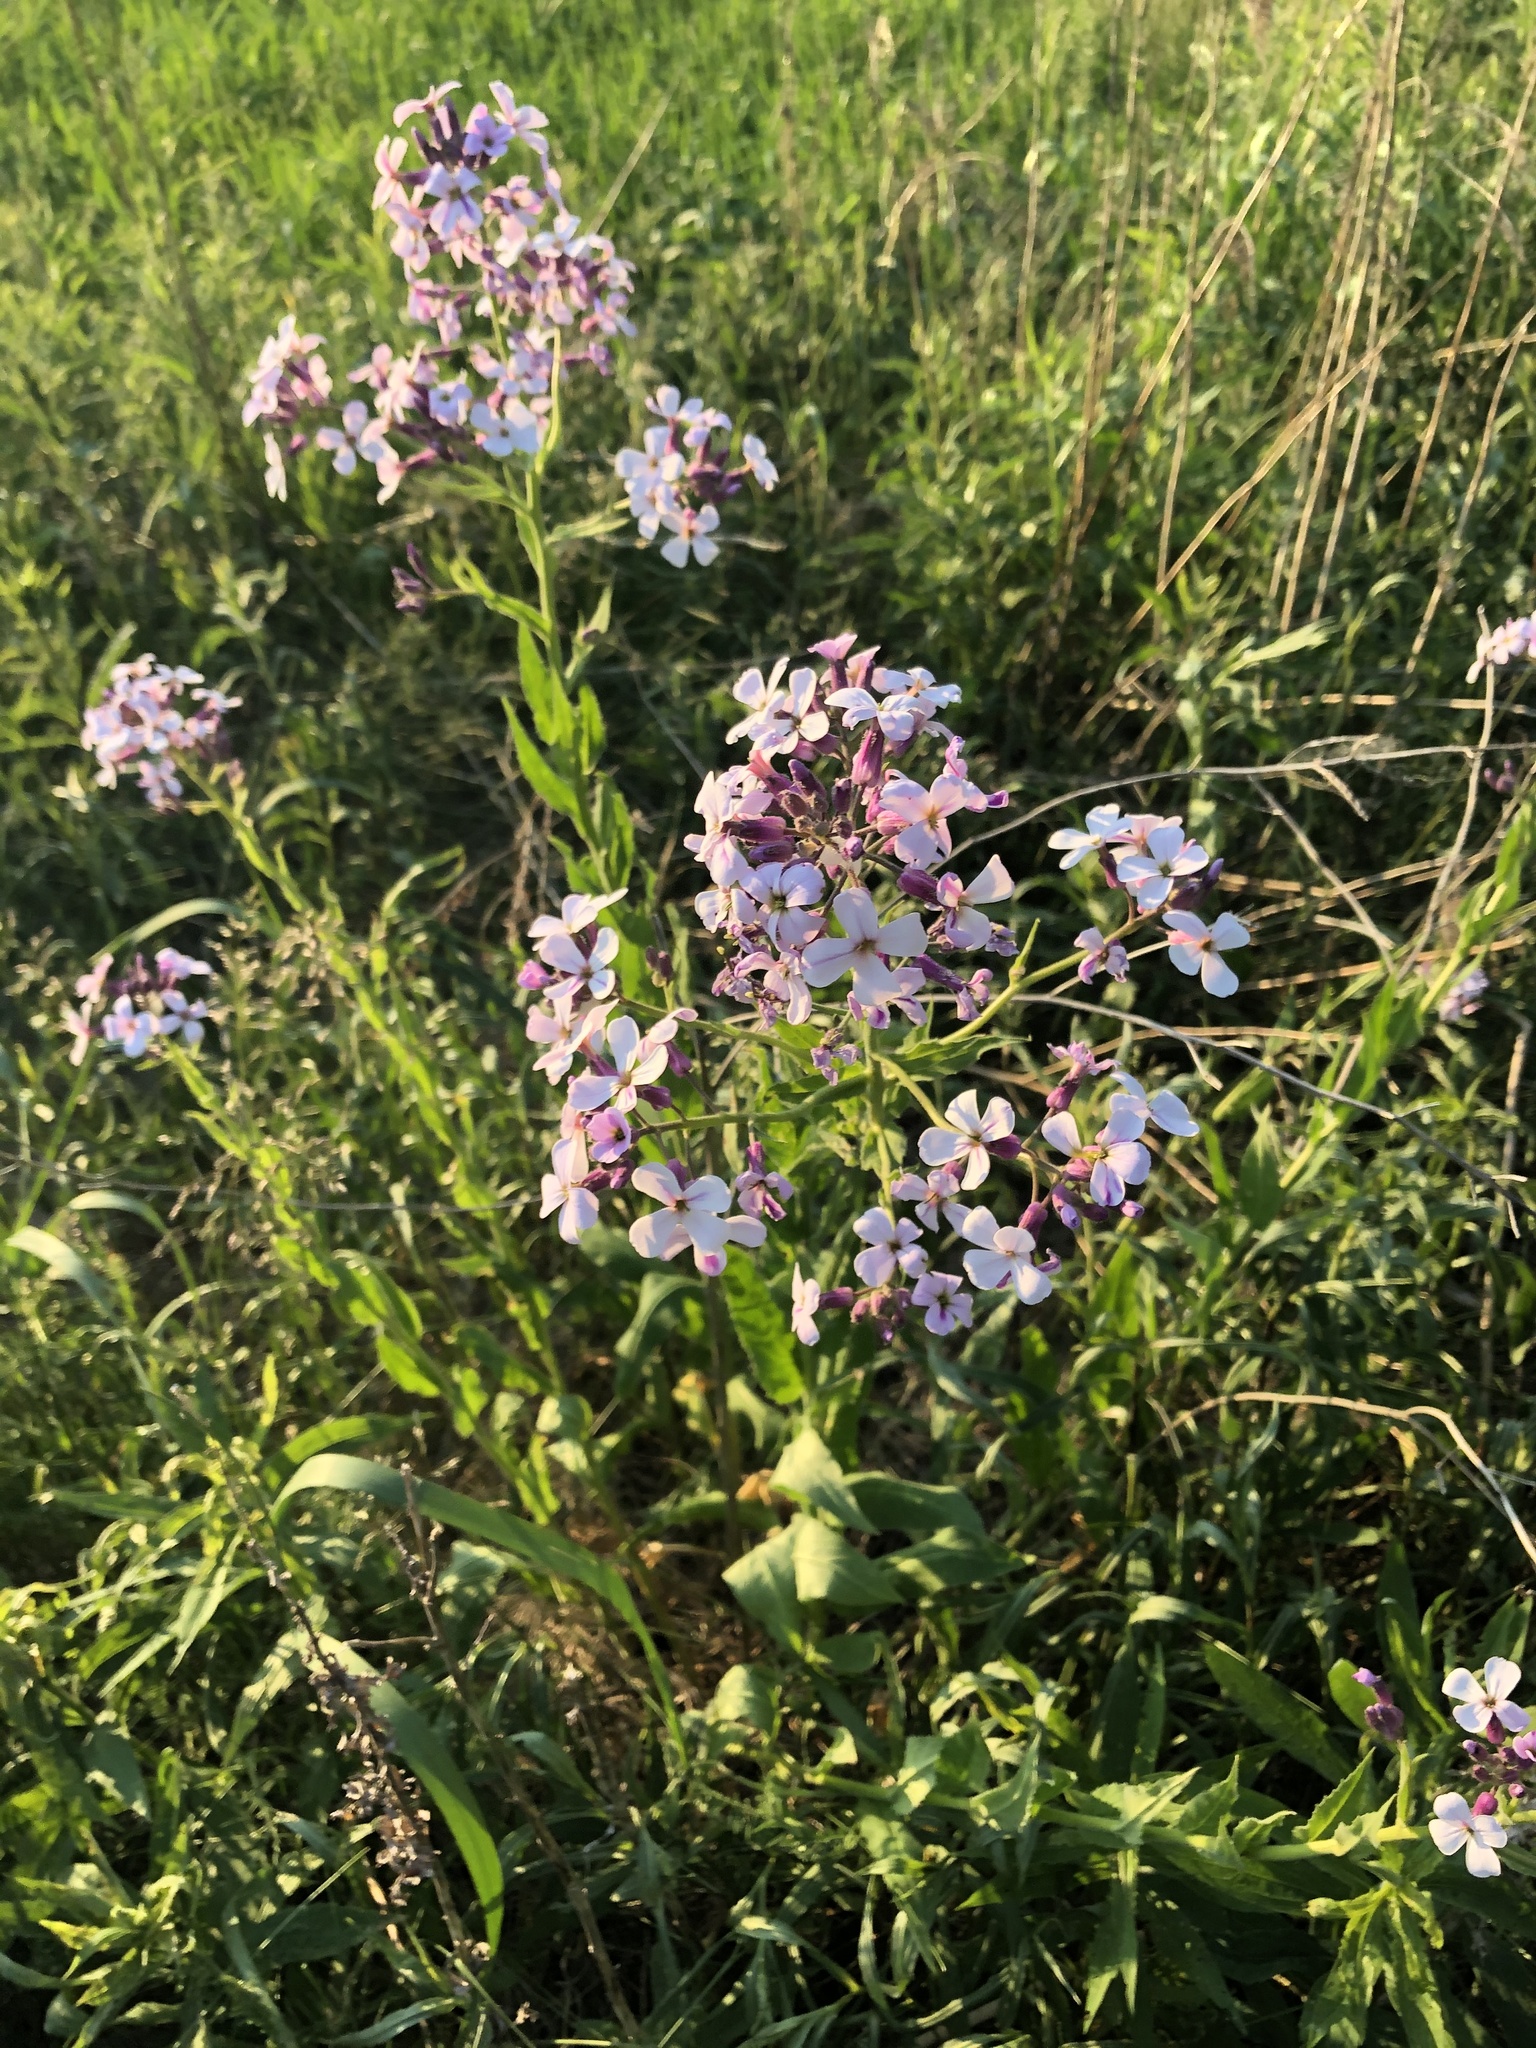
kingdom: Plantae
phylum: Tracheophyta
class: Magnoliopsida
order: Brassicales
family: Brassicaceae
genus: Hesperis
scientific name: Hesperis matronalis
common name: Dame's-violet
